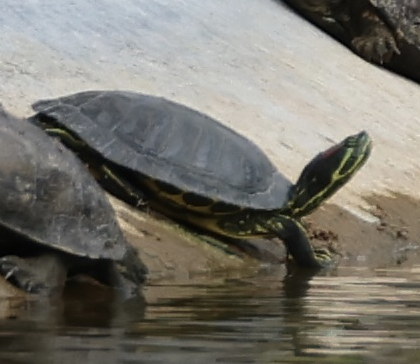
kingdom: Animalia
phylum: Chordata
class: Testudines
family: Emydidae
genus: Trachemys
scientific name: Trachemys scripta
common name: Slider
